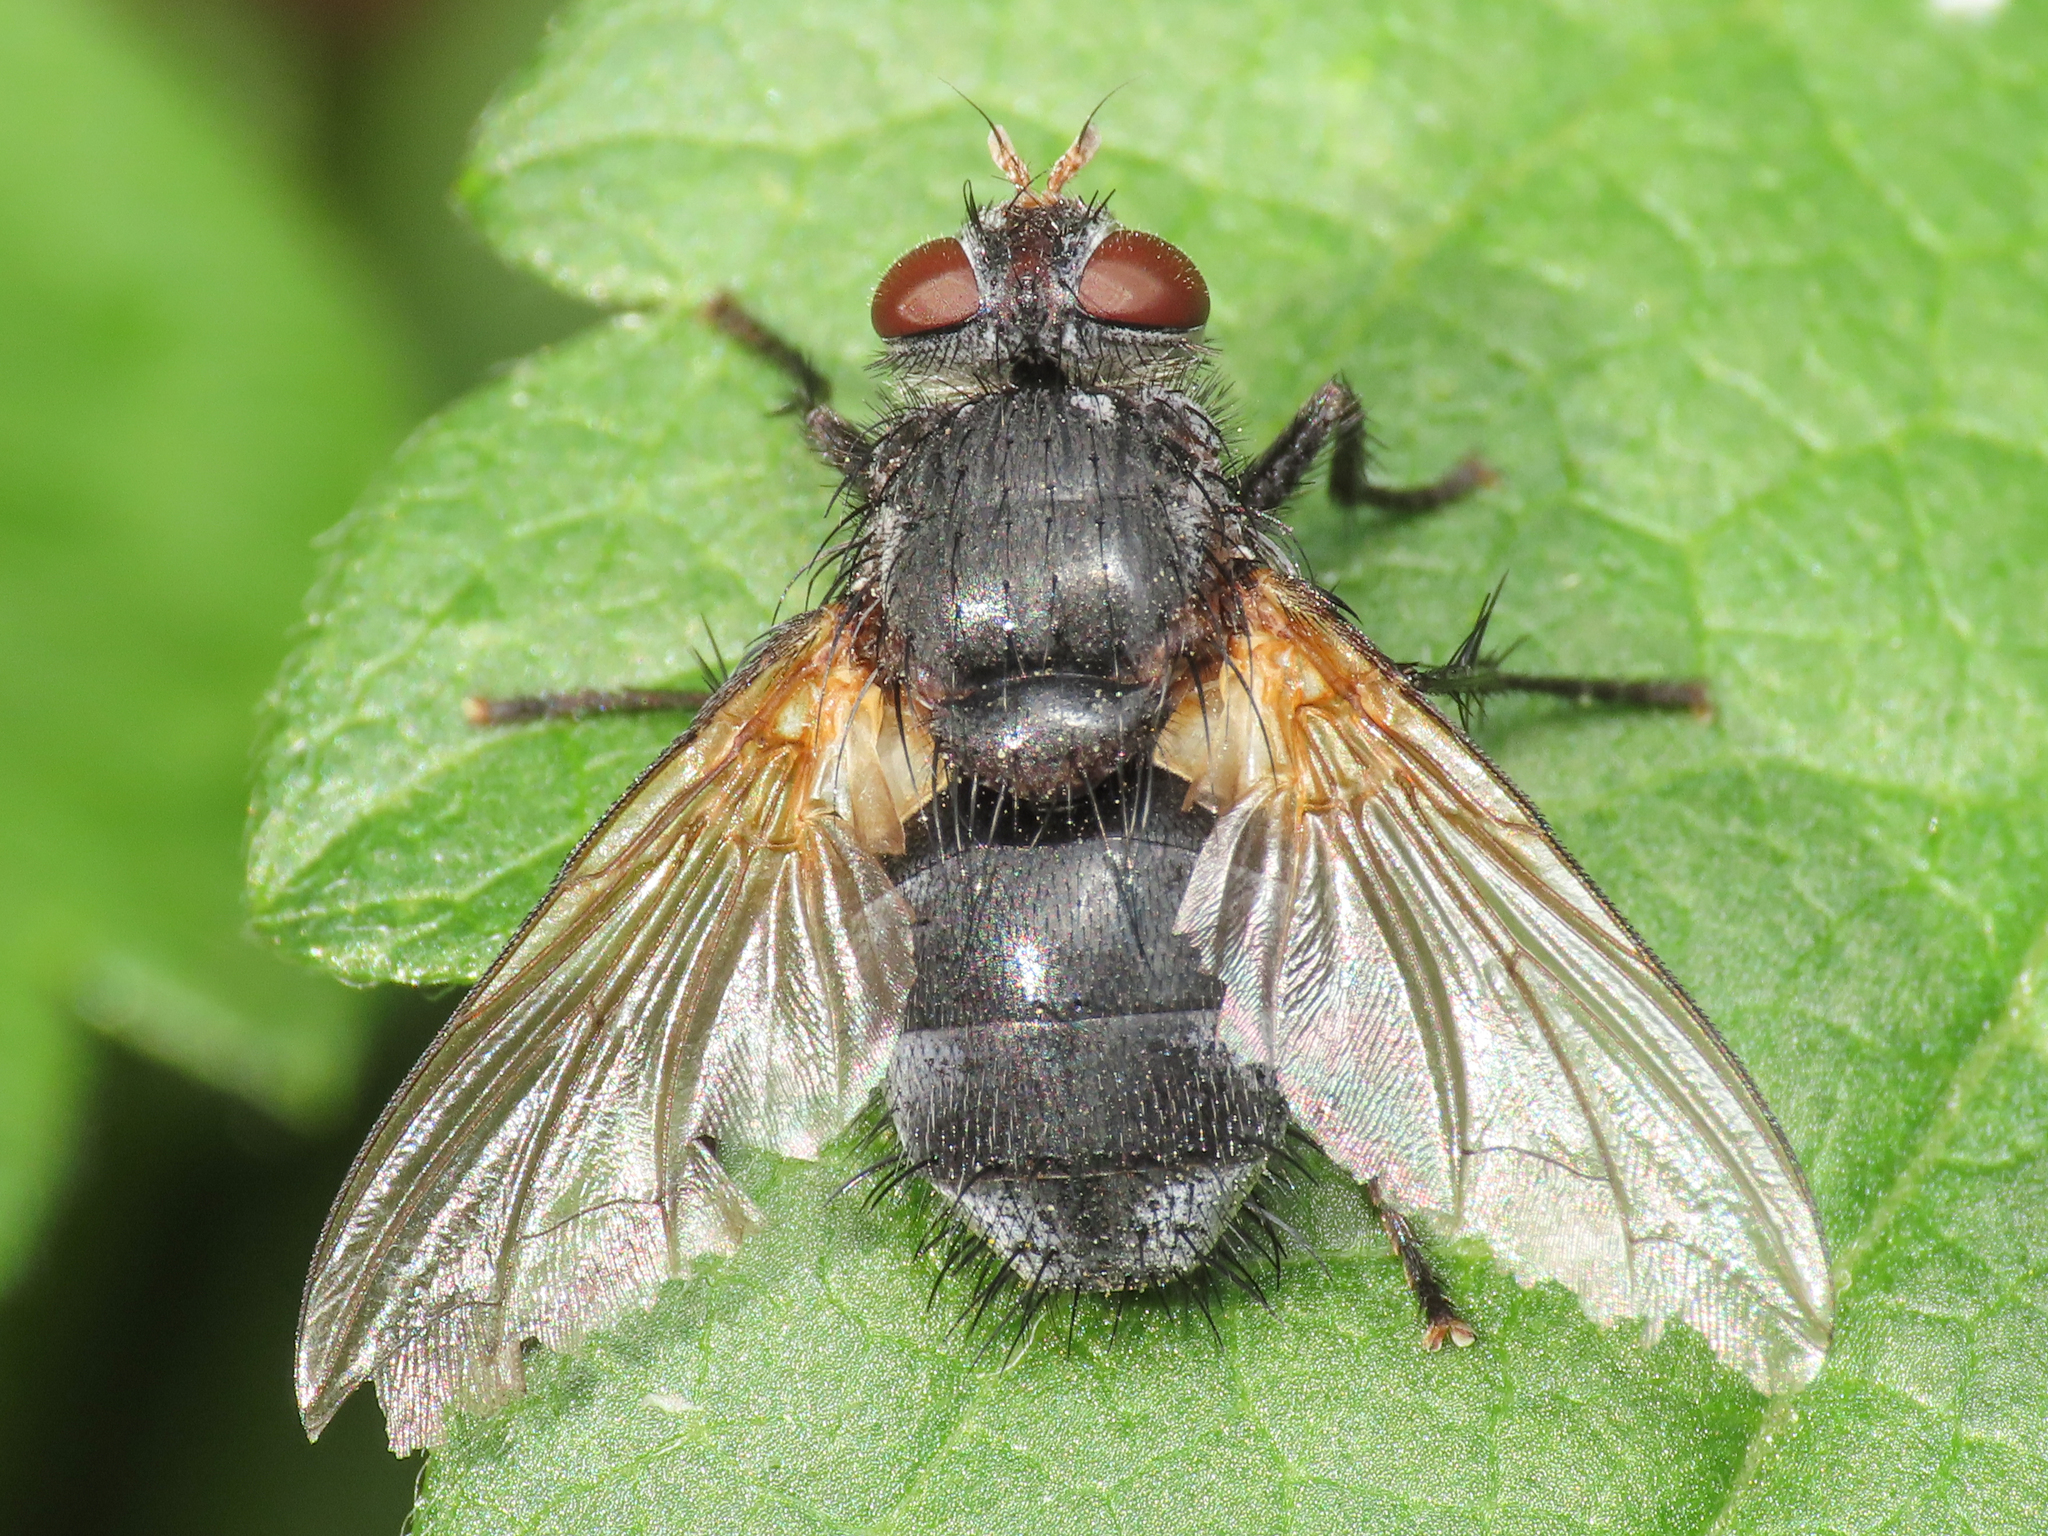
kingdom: Animalia
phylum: Arthropoda
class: Insecta
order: Diptera
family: Tachinidae
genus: Nemoraea
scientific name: Nemoraea pellucida
